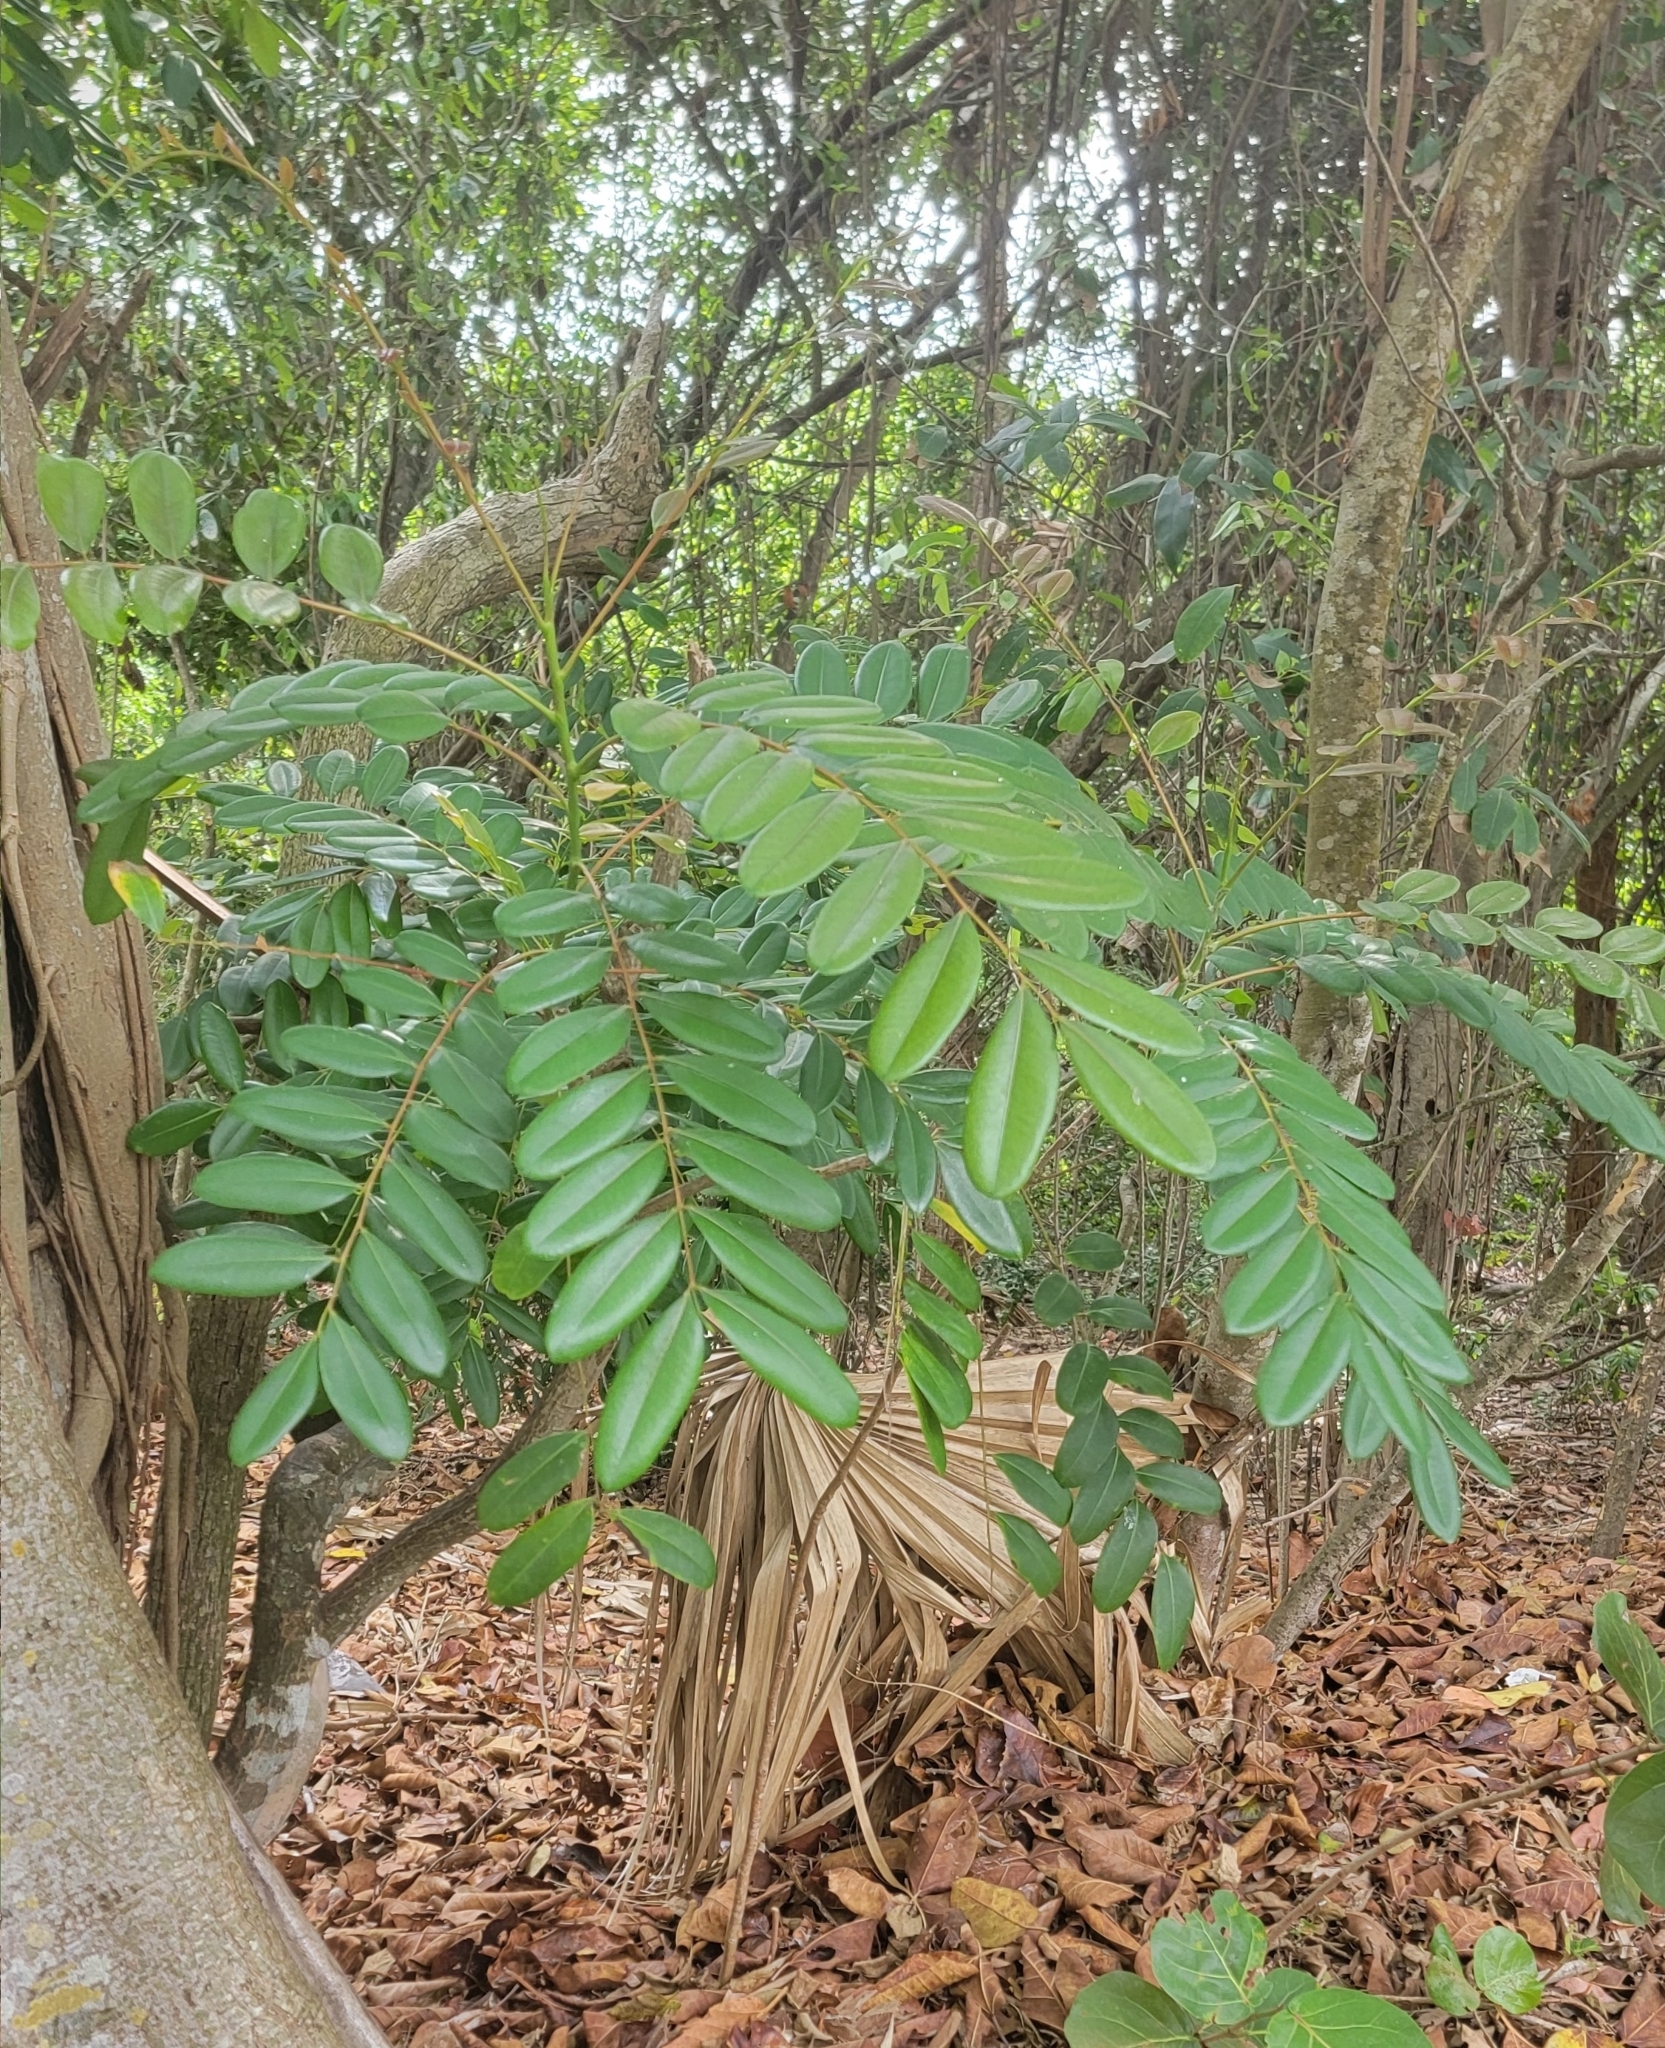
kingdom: Plantae
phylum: Tracheophyta
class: Magnoliopsida
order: Sapindales
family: Simaroubaceae
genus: Simarouba
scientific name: Simarouba glauca
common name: Dysentery-bark
